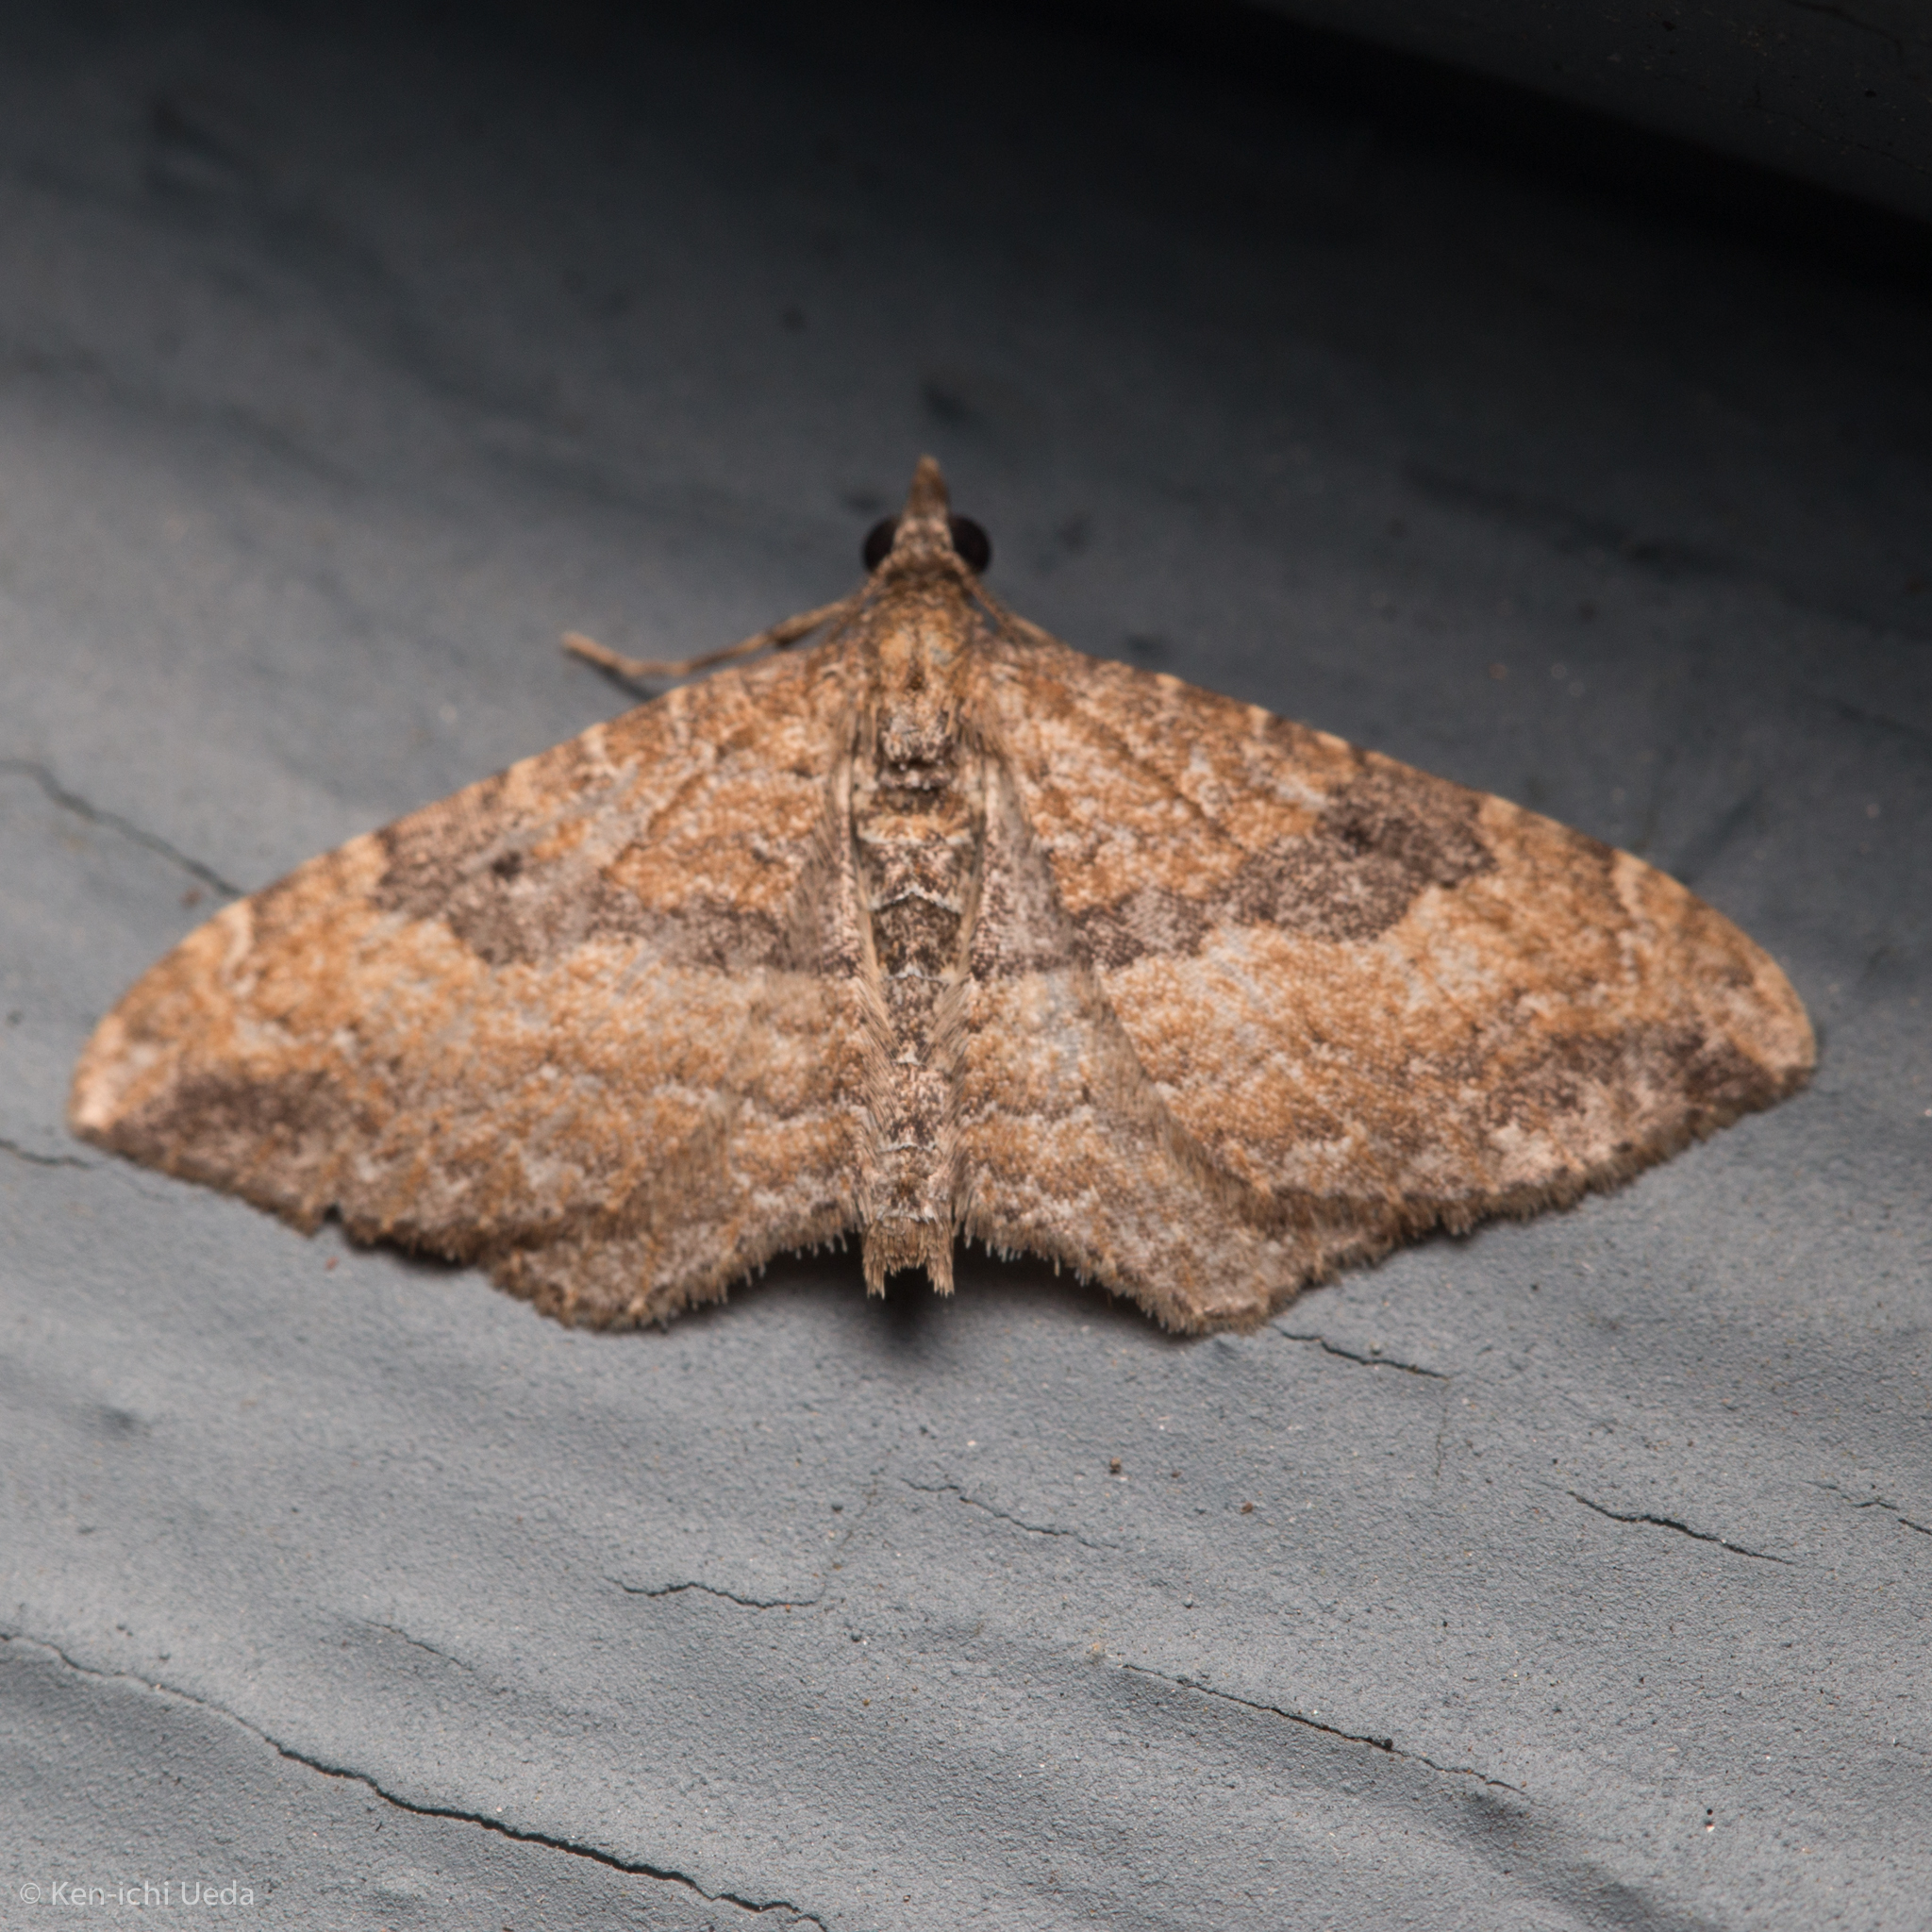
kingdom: Animalia
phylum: Arthropoda
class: Insecta
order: Lepidoptera
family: Geometridae
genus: Orthonama
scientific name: Orthonama obstipata
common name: The gem
